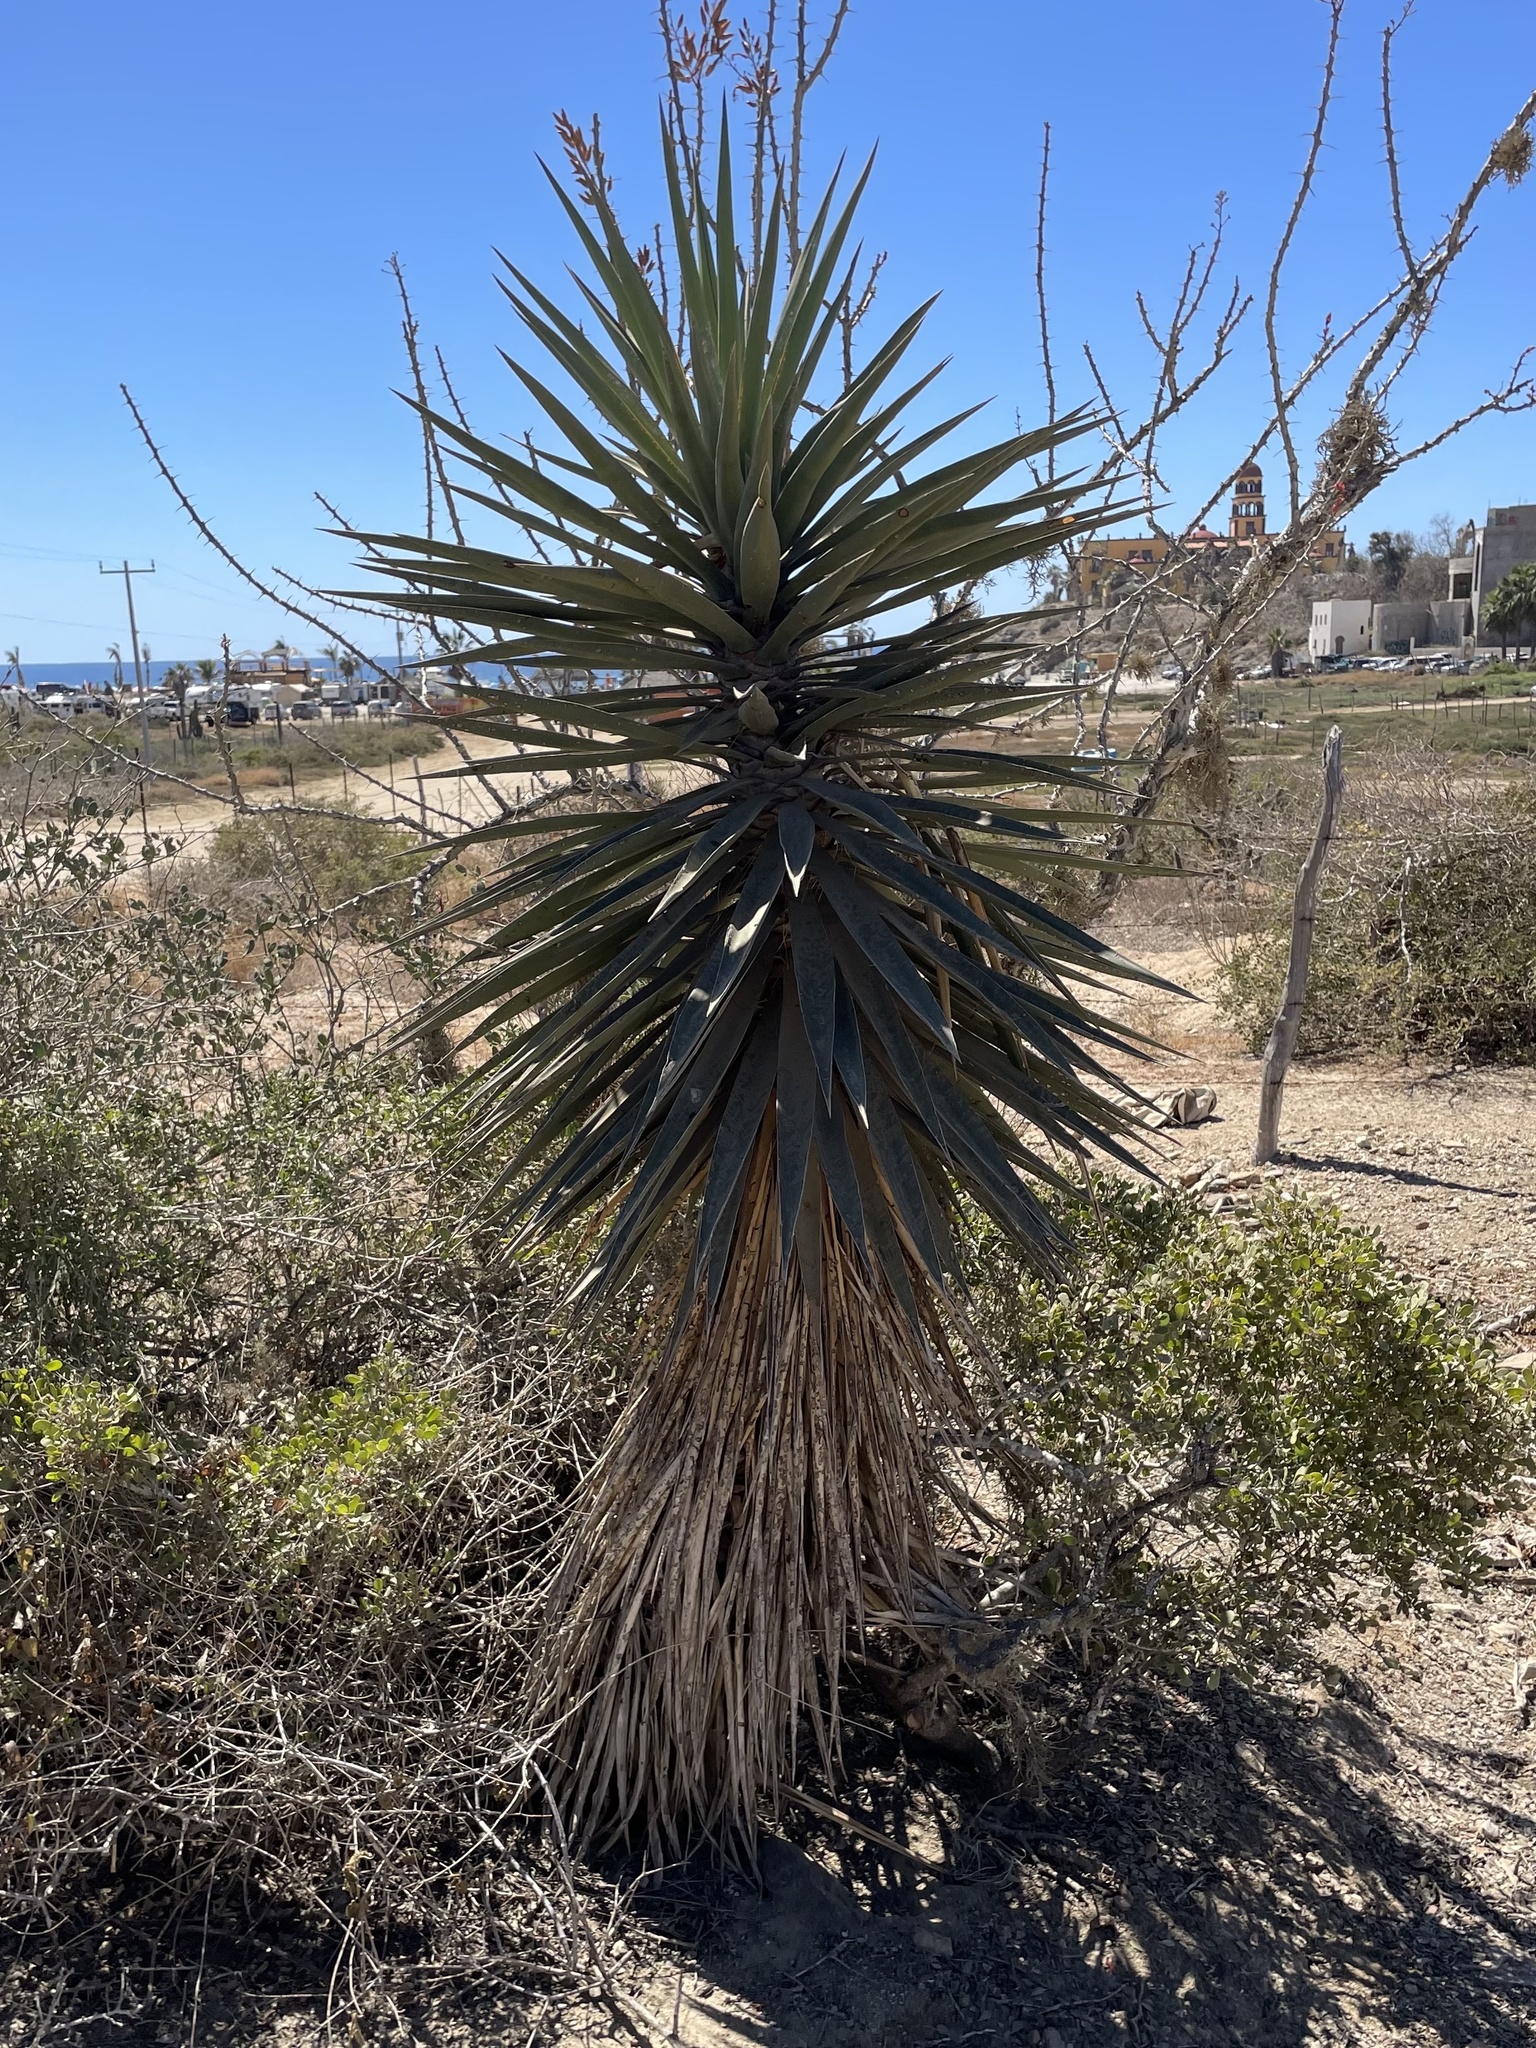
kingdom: Plantae
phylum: Tracheophyta
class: Liliopsida
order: Asparagales
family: Asparagaceae
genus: Yucca
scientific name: Yucca capensis
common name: Cape region yucca
